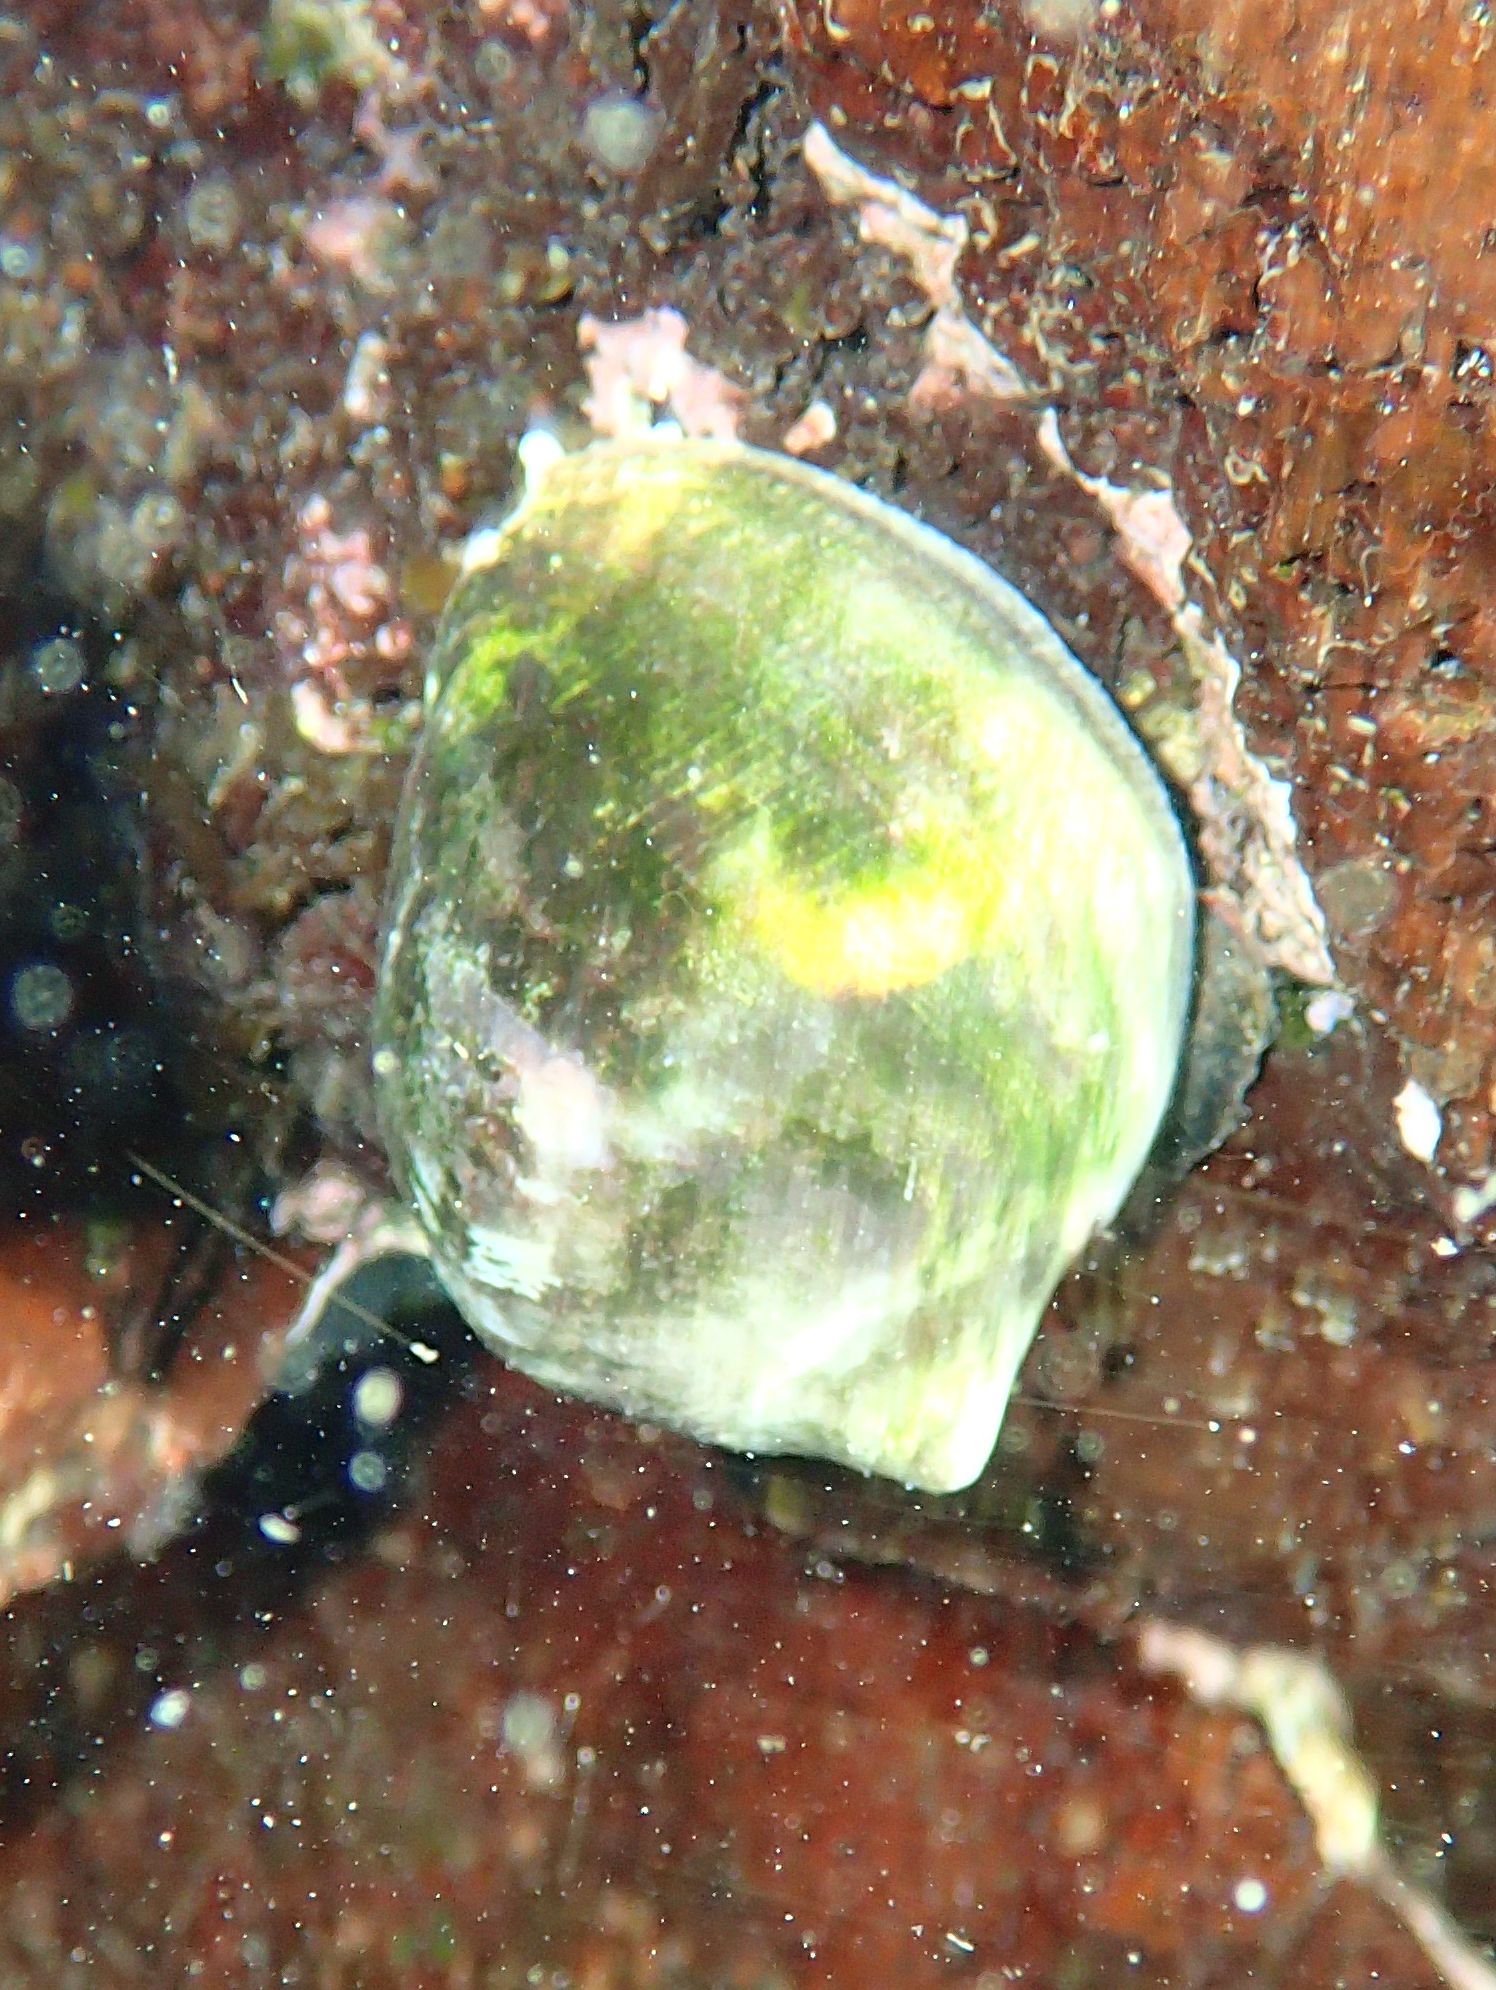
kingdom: Animalia
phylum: Mollusca
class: Gastropoda
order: Neogastropoda
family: Muricidae
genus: Vasula
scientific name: Vasula melones
